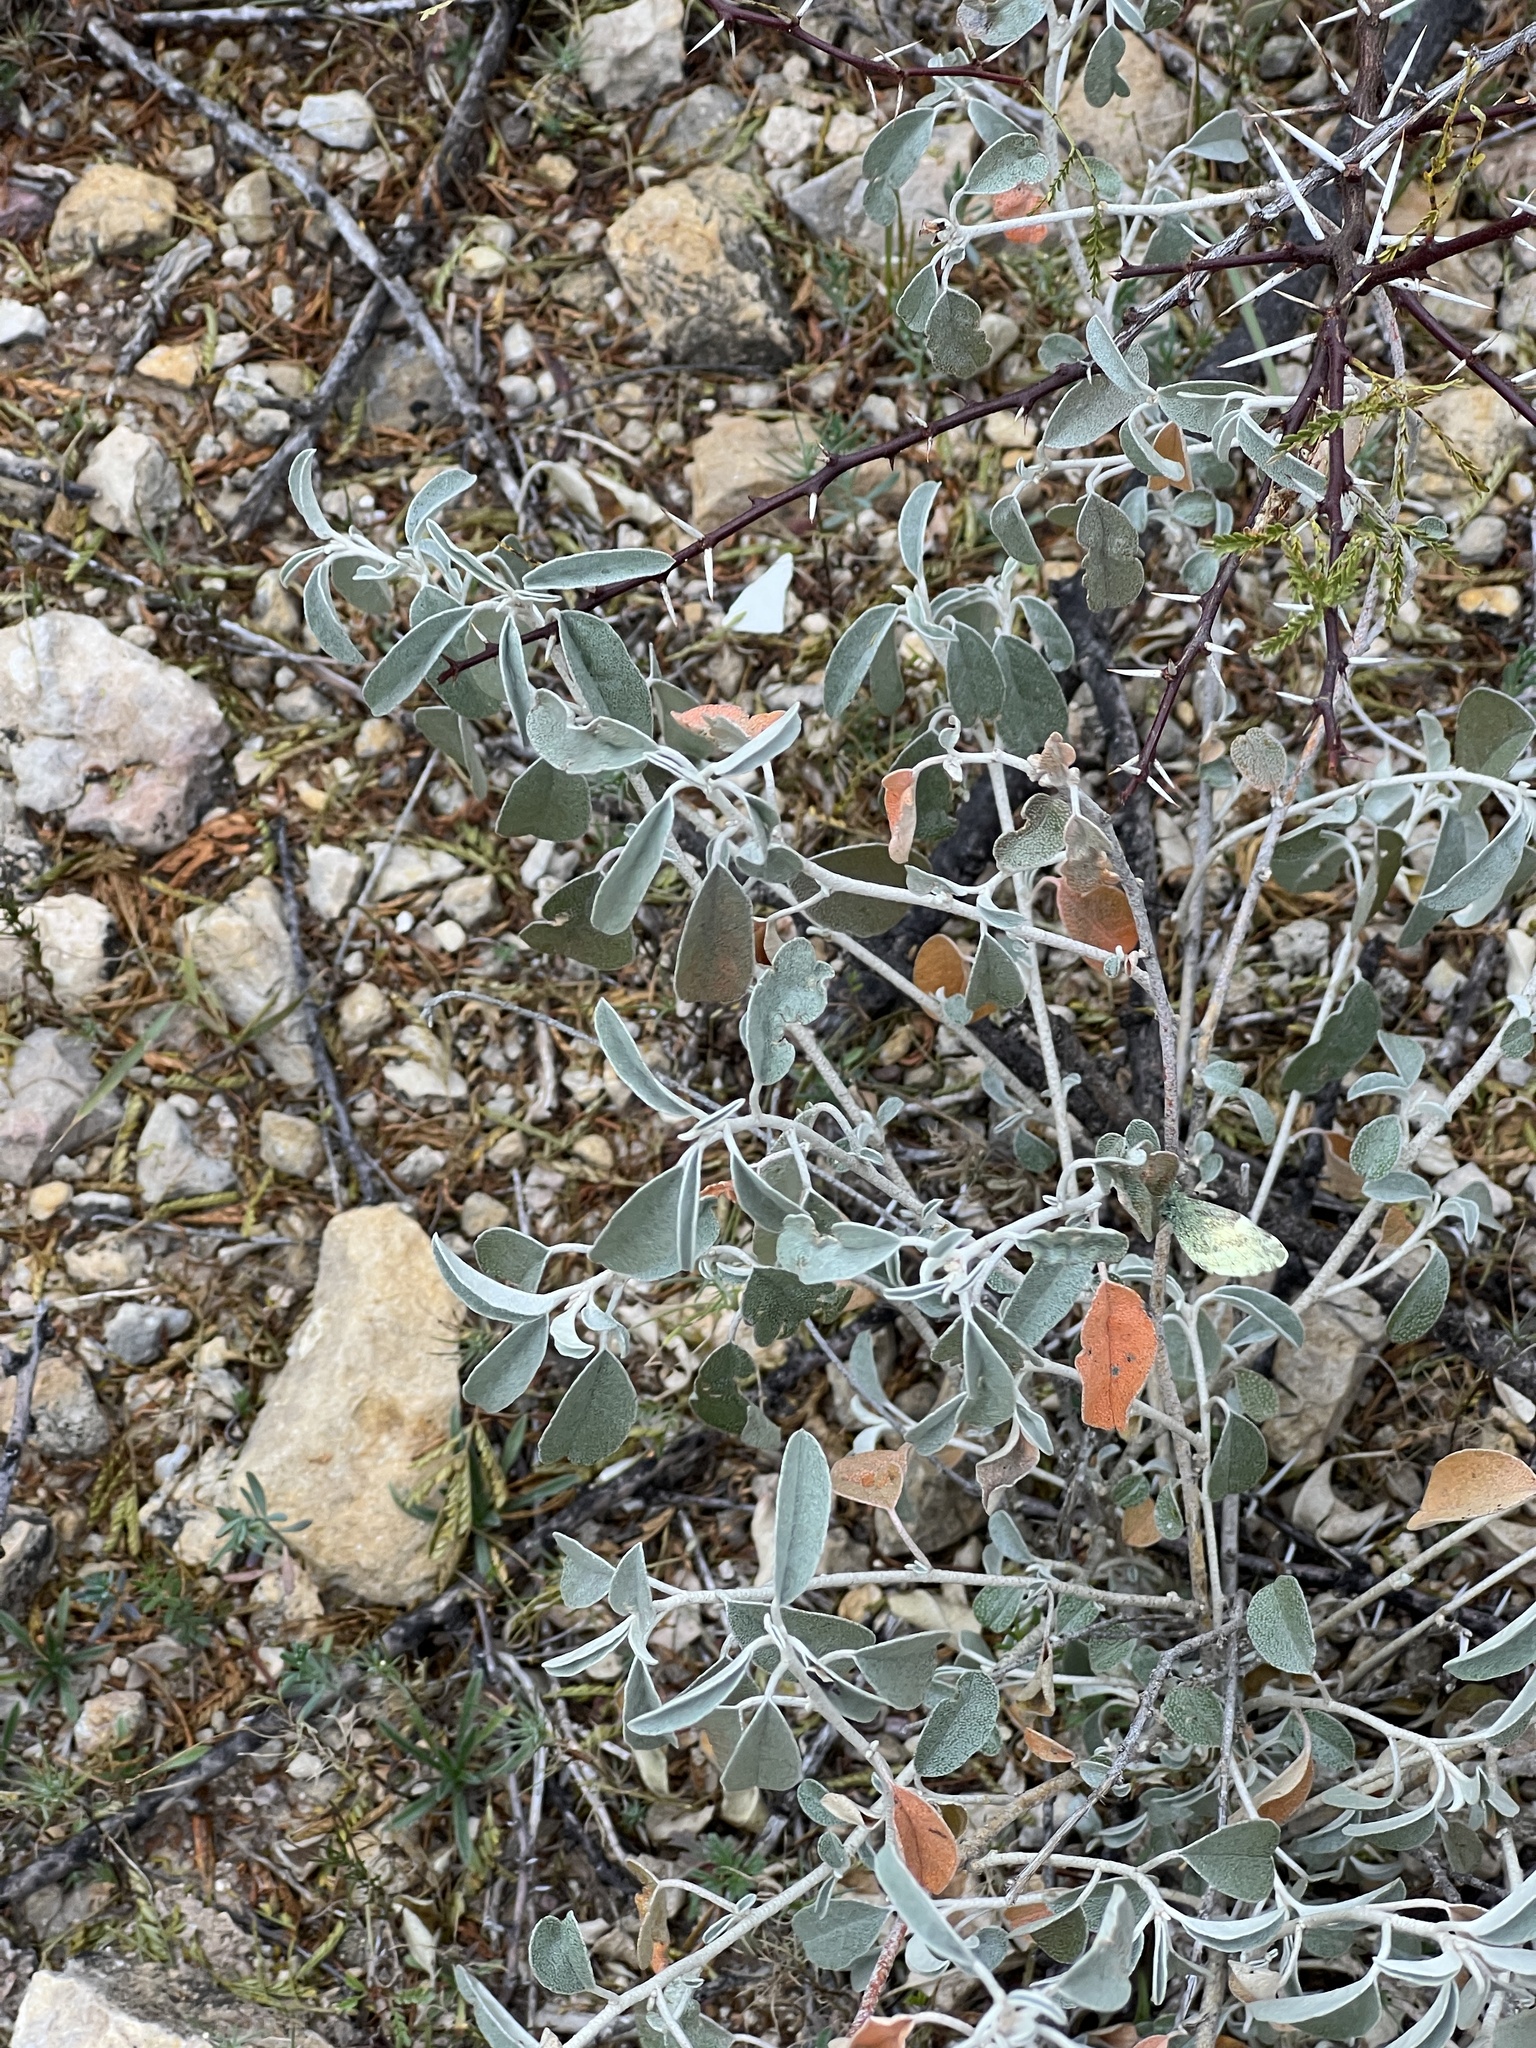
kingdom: Plantae
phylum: Tracheophyta
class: Magnoliopsida
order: Malpighiales
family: Euphorbiaceae
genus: Croton
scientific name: Croton dioicus
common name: Grassland croton
